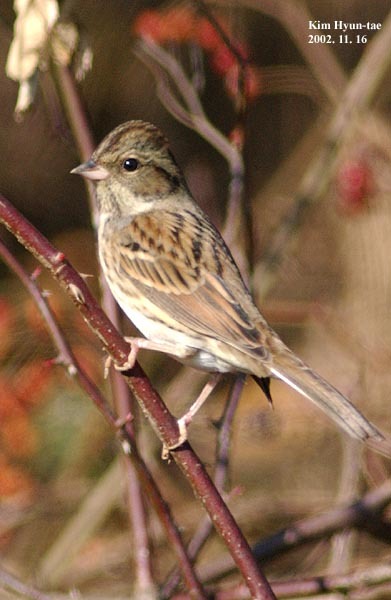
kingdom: Animalia
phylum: Chordata
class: Aves
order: Passeriformes
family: Emberizidae
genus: Emberiza
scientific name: Emberiza spodocephala
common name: Black-faced bunting
